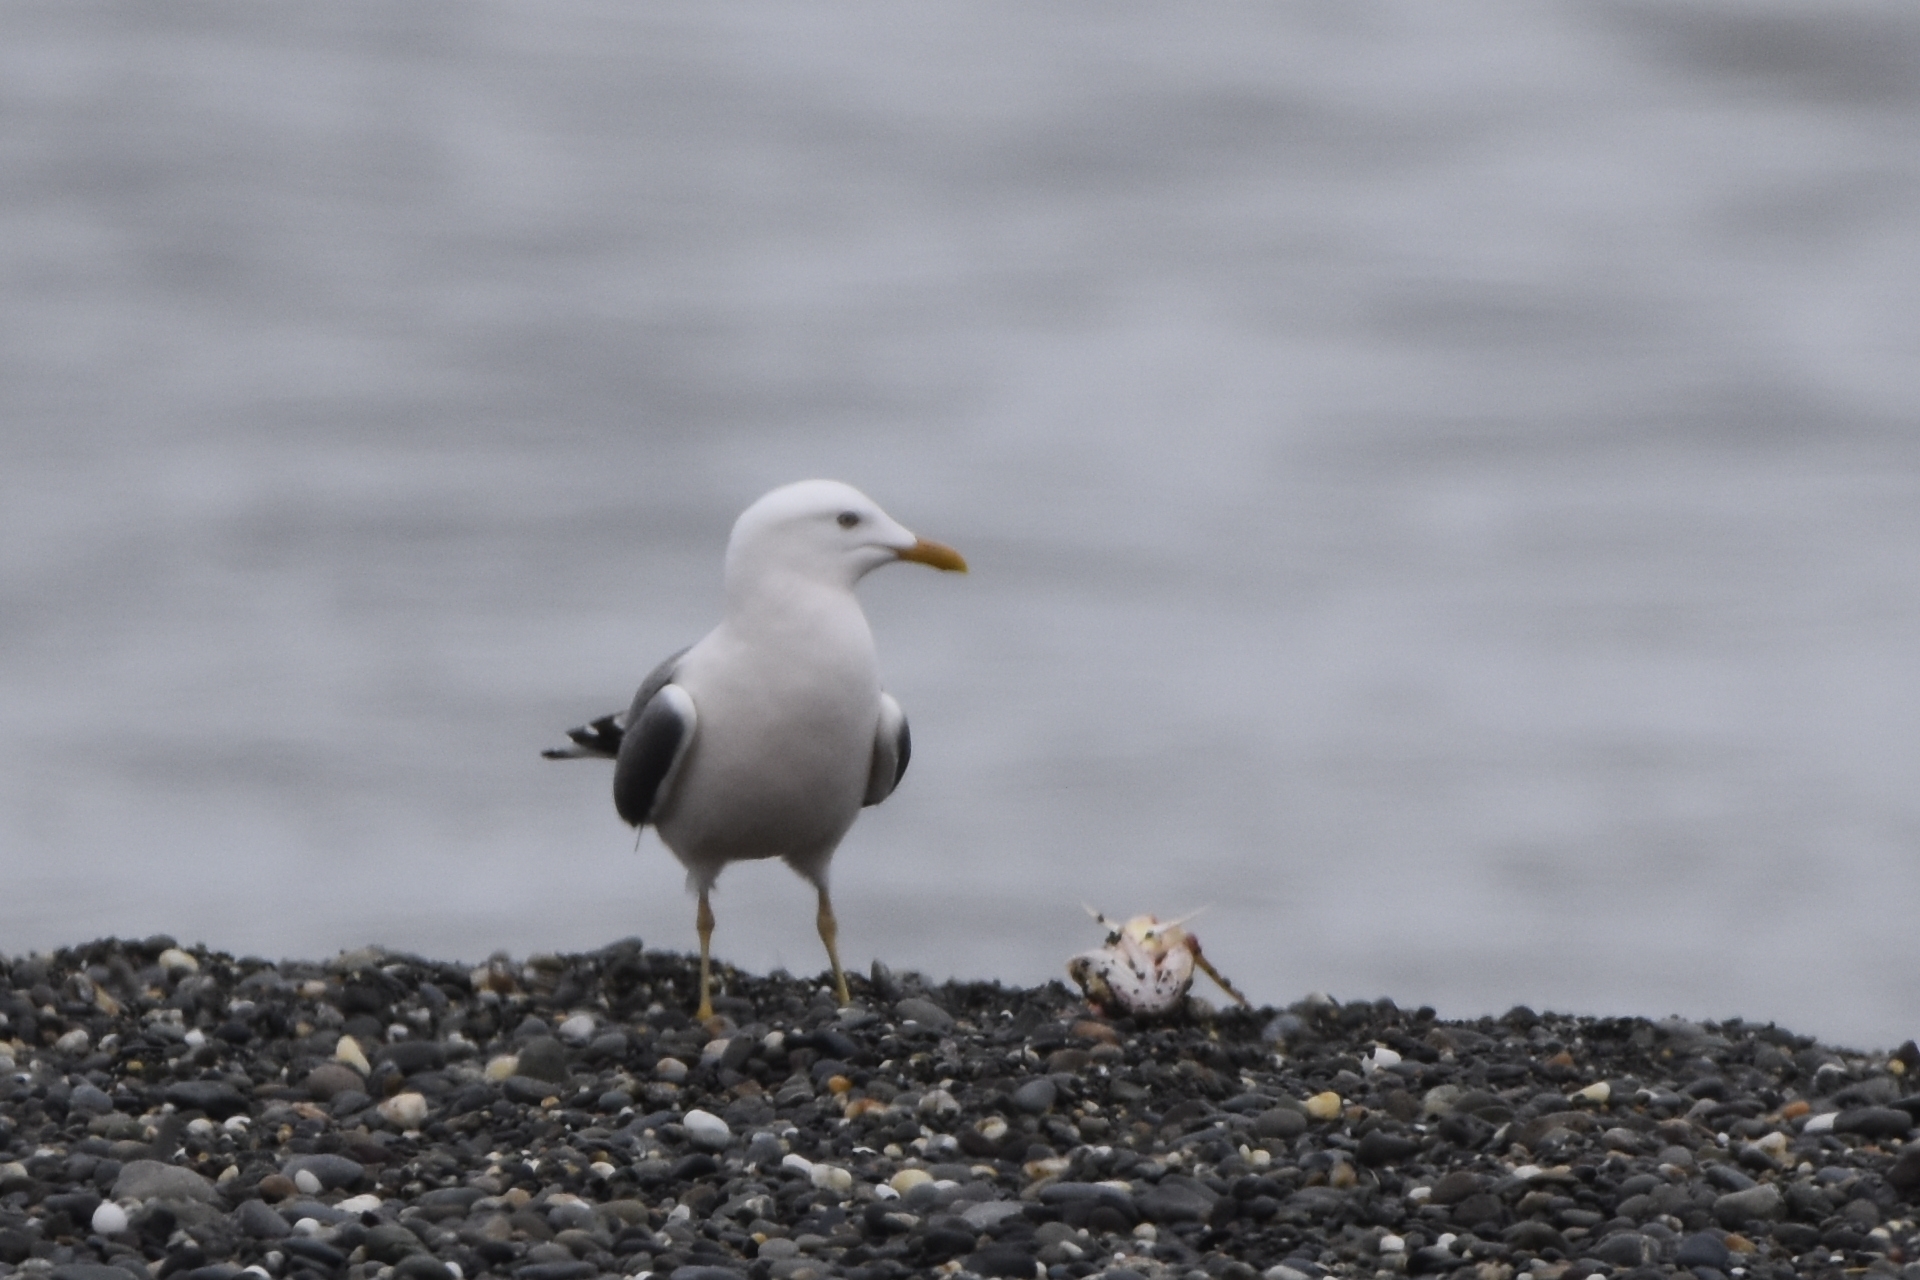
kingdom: Animalia
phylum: Chordata
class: Aves
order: Charadriiformes
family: Laridae
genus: Larus
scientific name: Larus canus
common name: Mew gull
